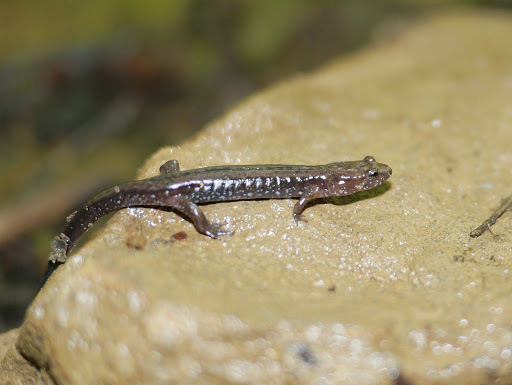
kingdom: Animalia
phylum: Chordata
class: Amphibia
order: Caudata
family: Plethodontidae
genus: Desmognathus
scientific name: Desmognathus ochrophaeus
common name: Allegheny mountain dusky salamander
